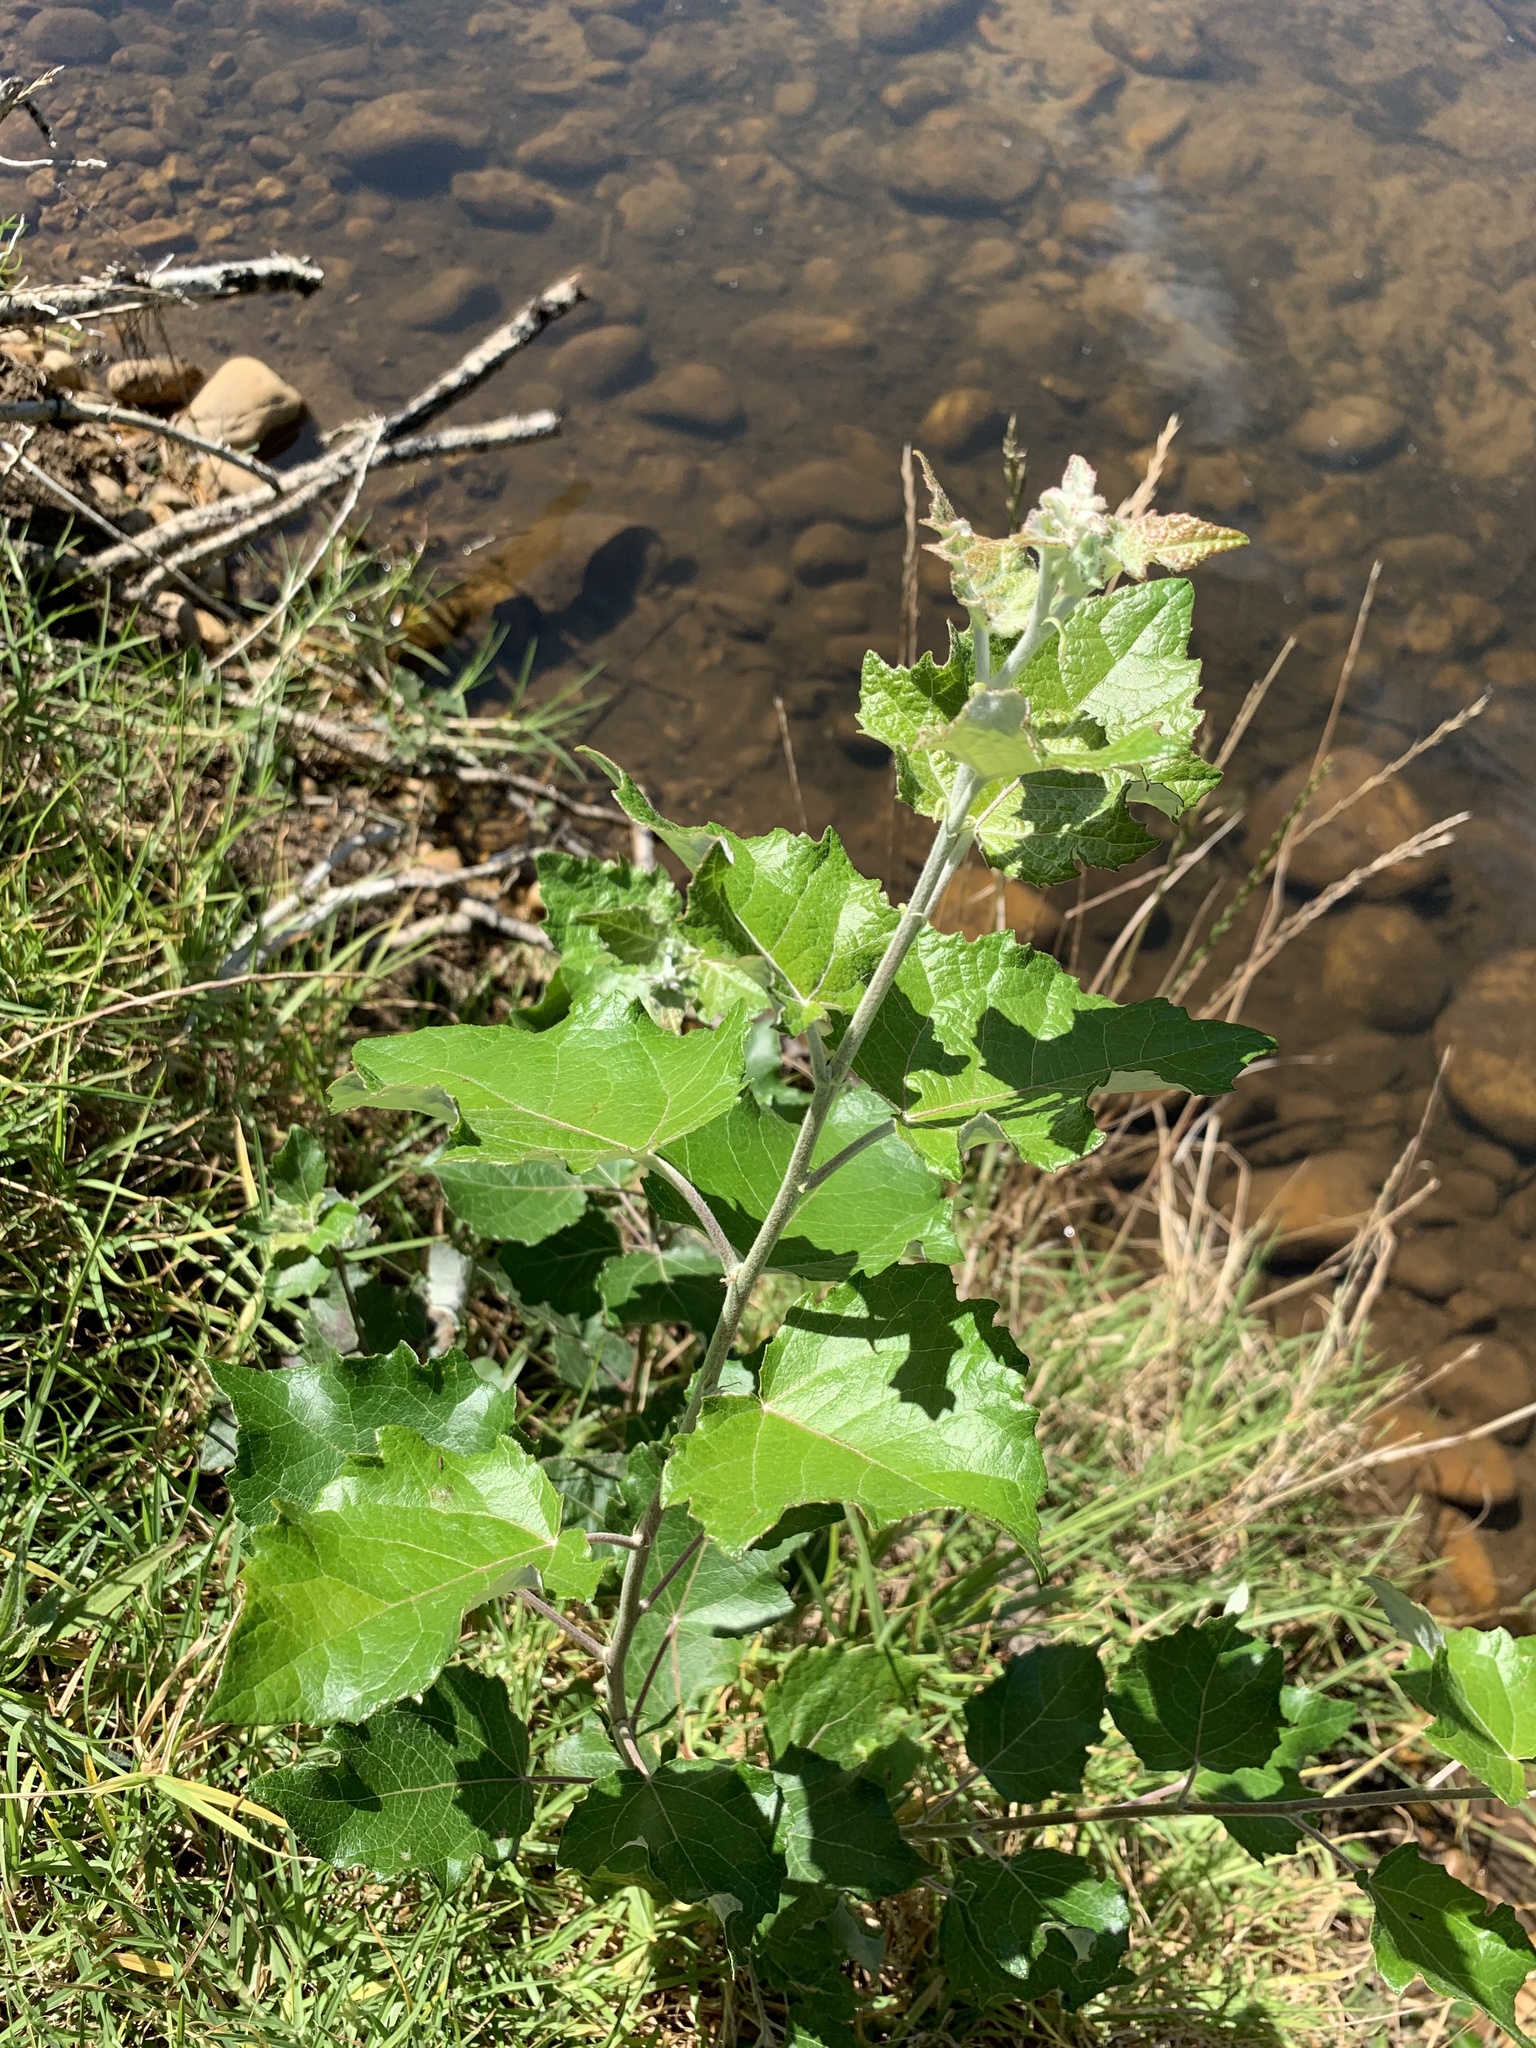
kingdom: Plantae
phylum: Tracheophyta
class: Magnoliopsida
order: Malpighiales
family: Salicaceae
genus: Populus
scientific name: Populus canescens
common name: Gray poplar
